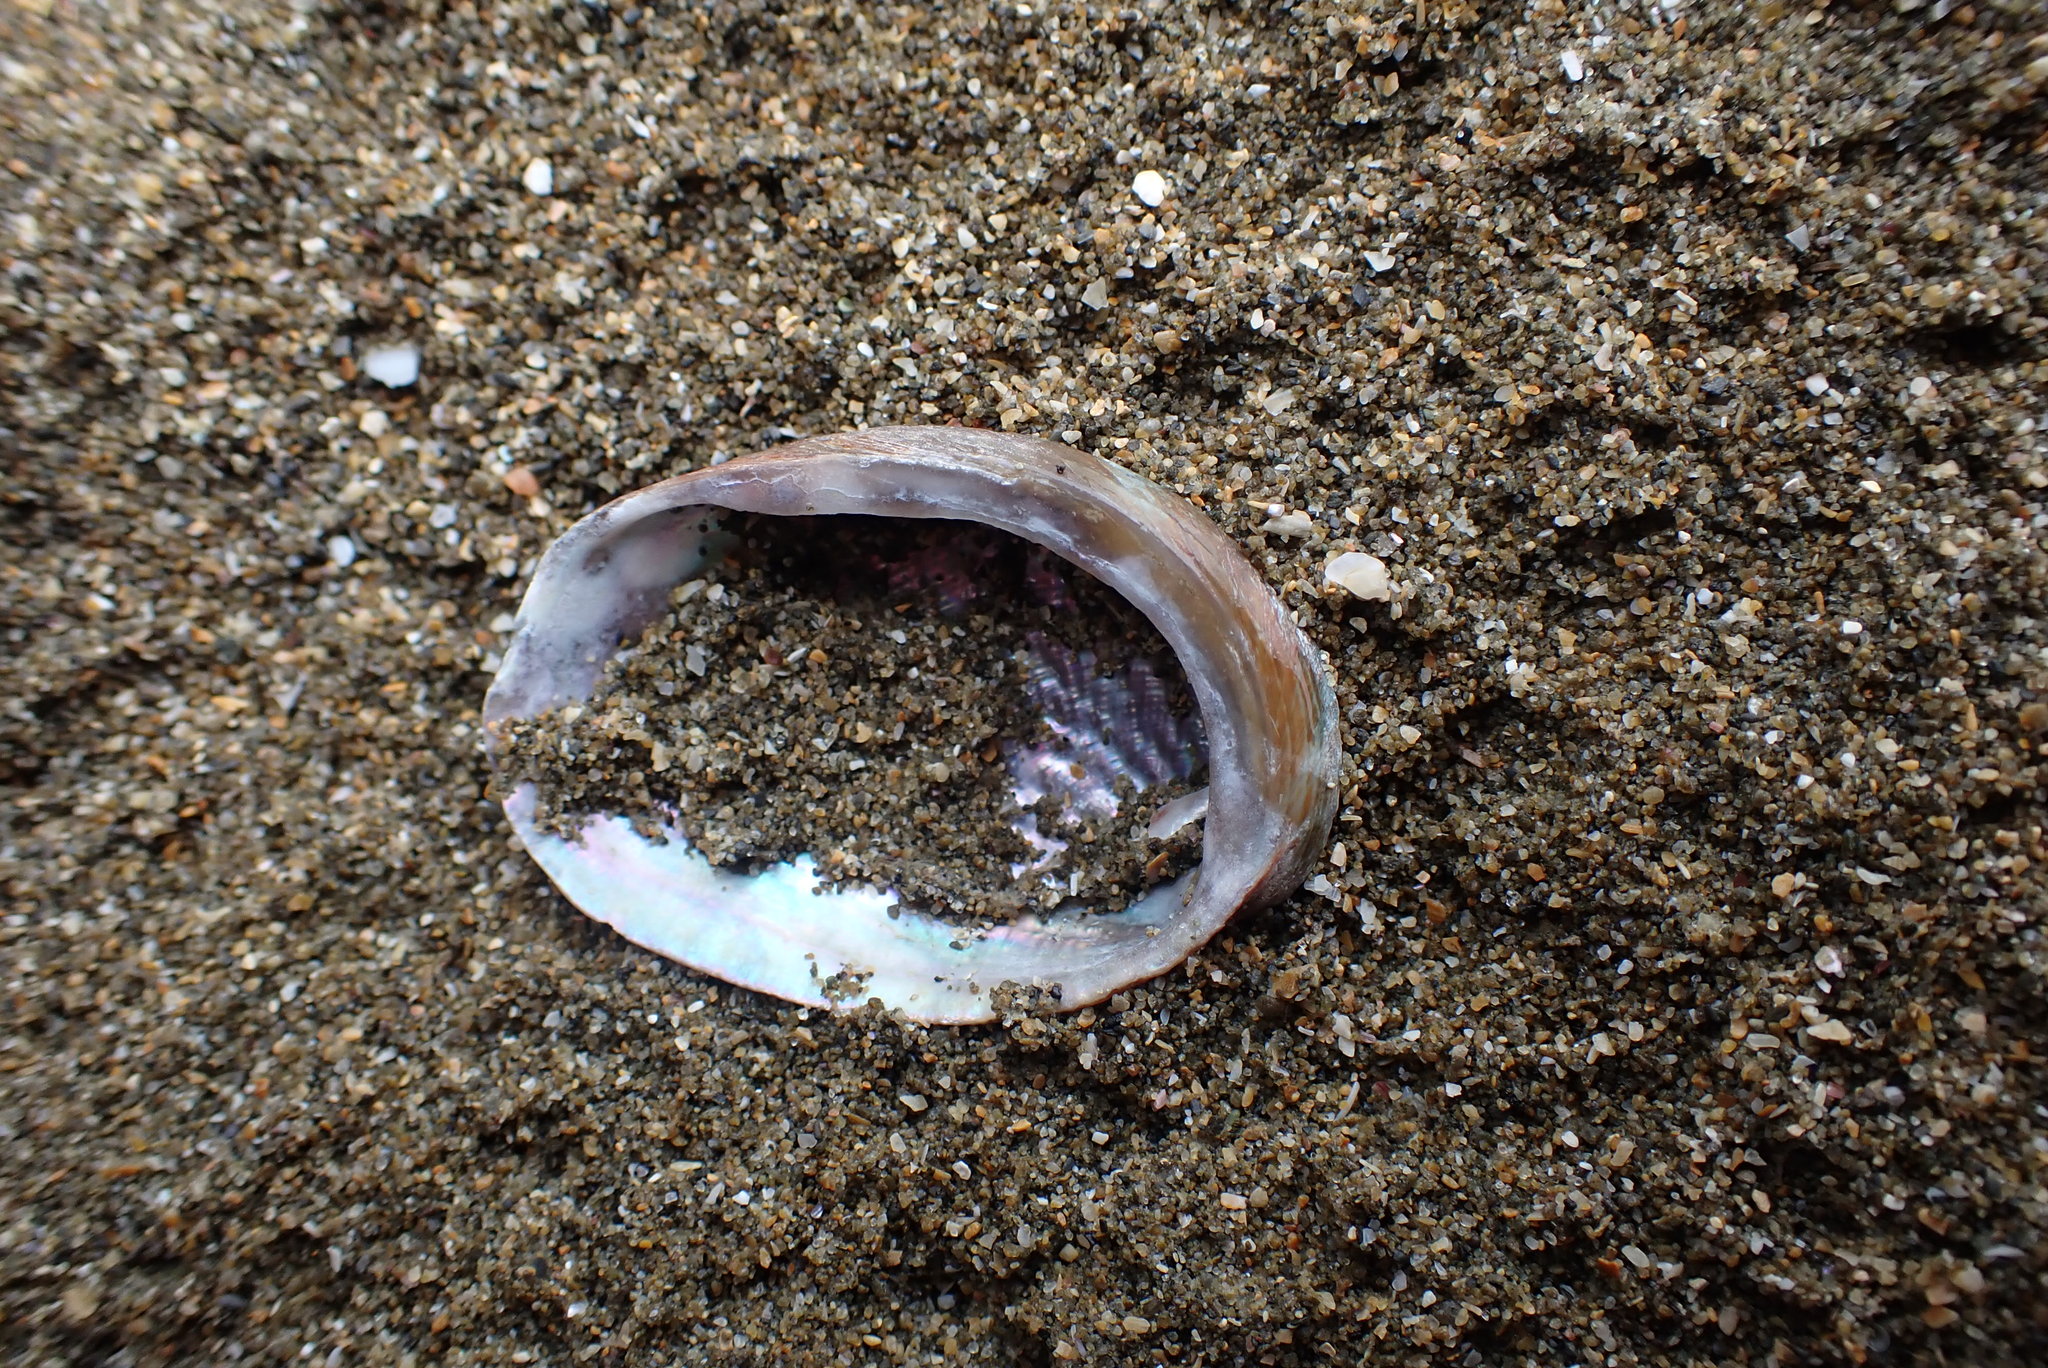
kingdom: Animalia
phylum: Mollusca
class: Gastropoda
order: Lepetellida
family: Haliotidae
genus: Haliotis
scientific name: Haliotis virginea
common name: Whitefoot paua
